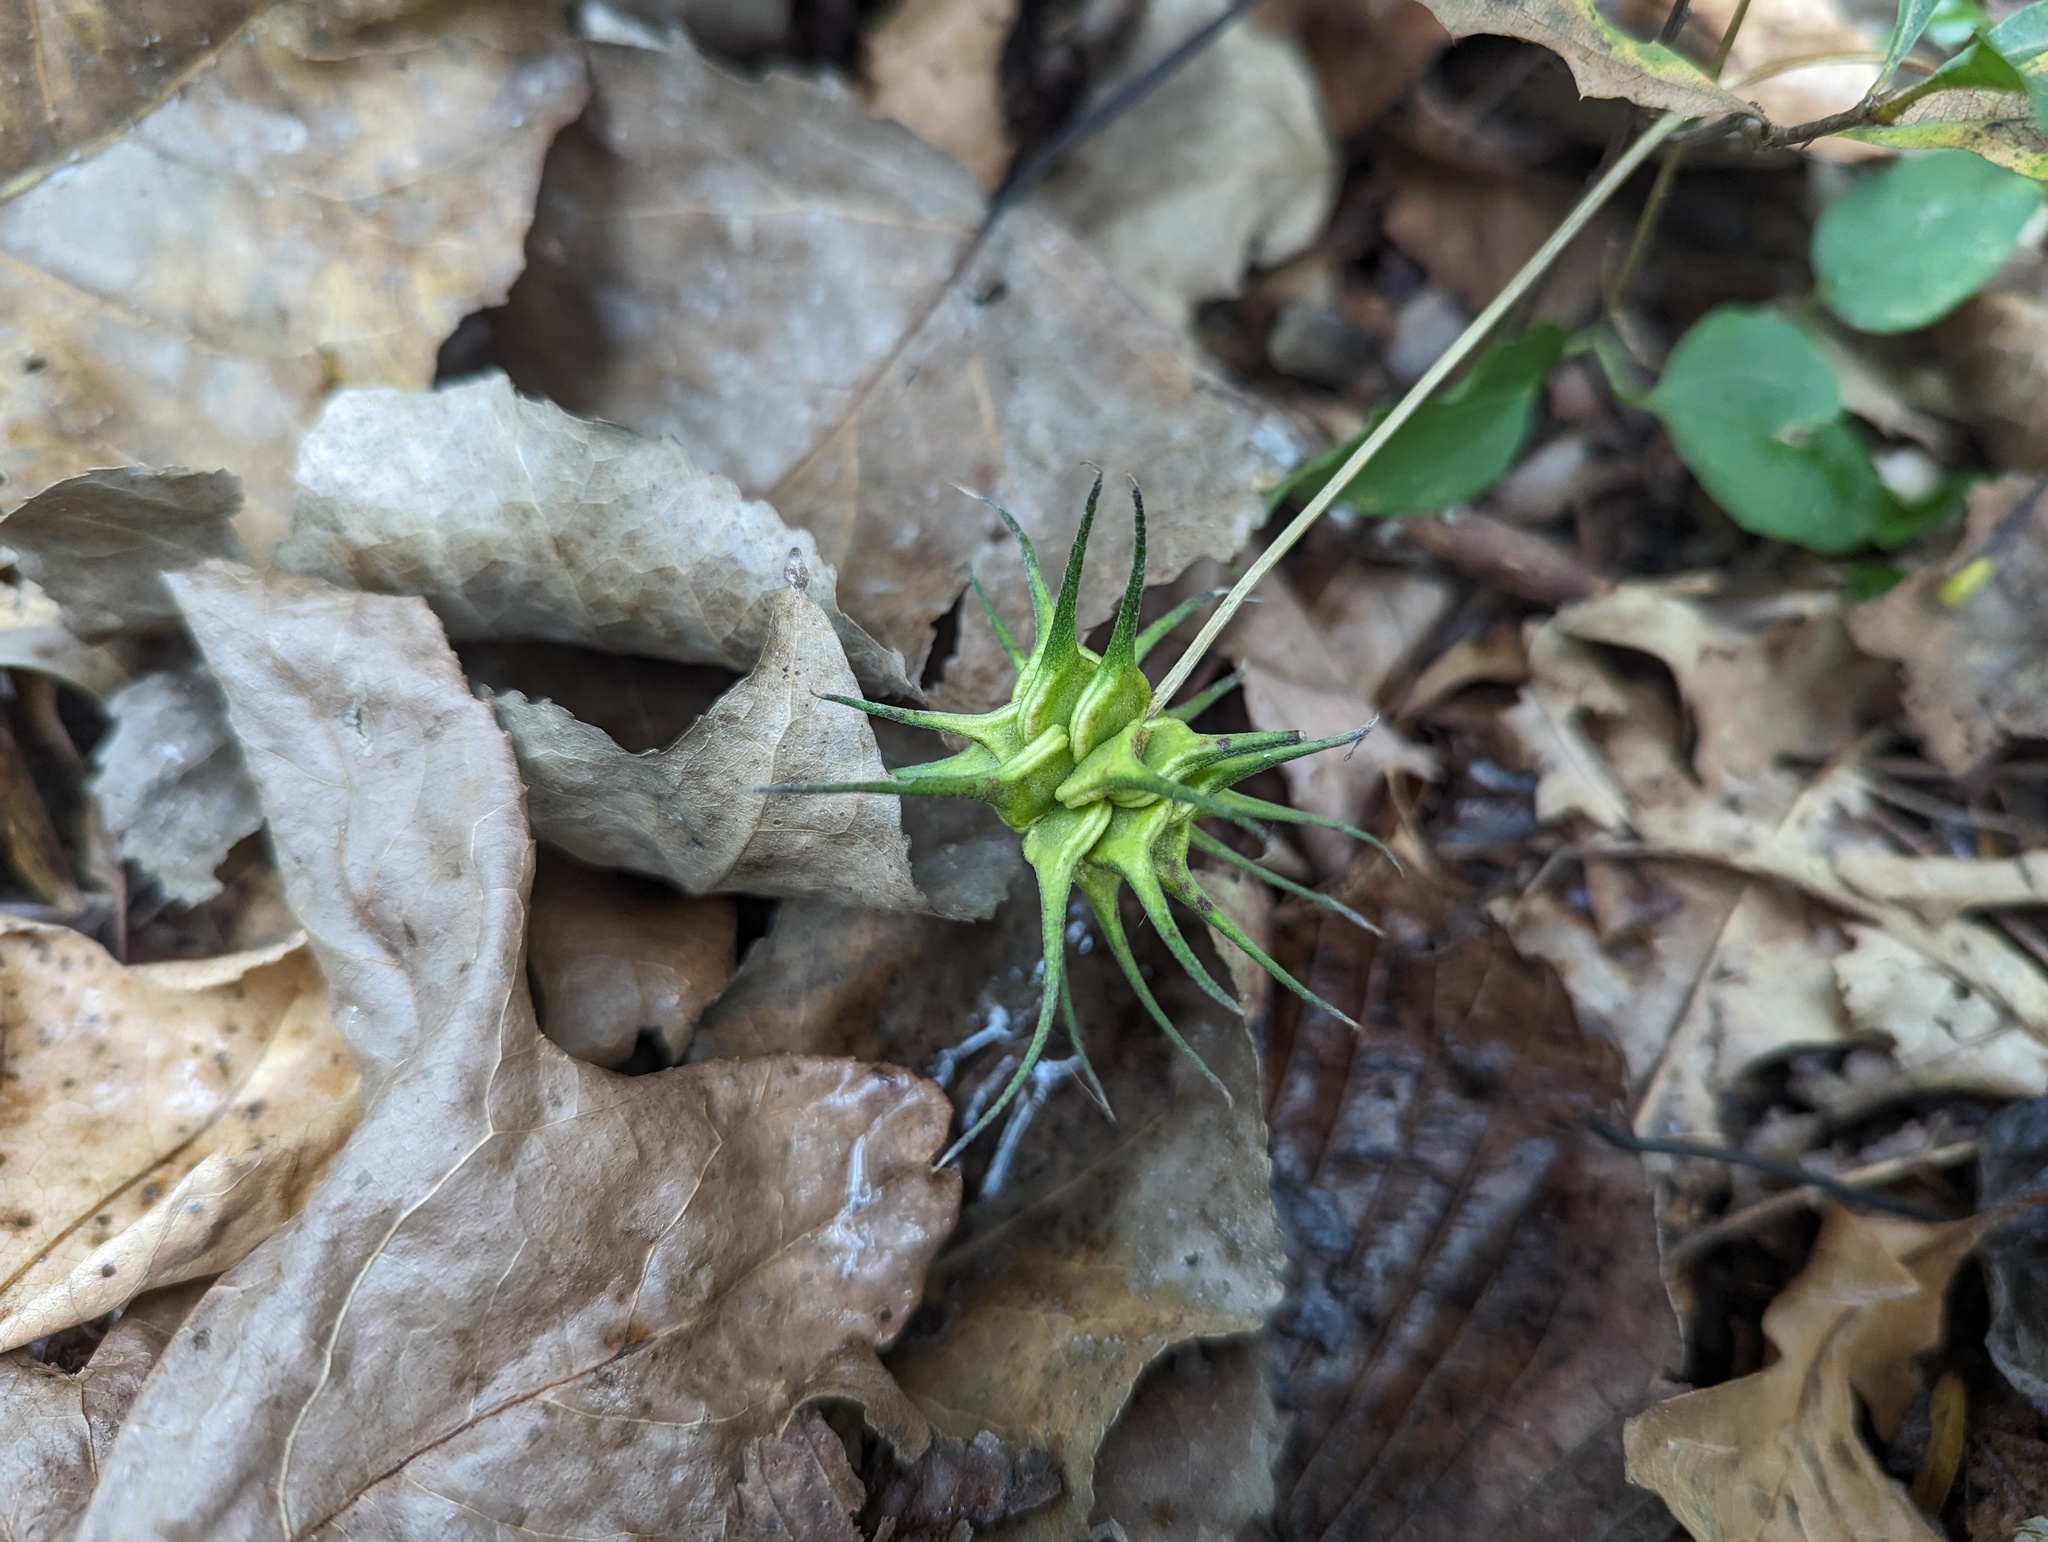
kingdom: Plantae
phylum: Tracheophyta
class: Magnoliopsida
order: Ranunculales
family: Ranunculaceae
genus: Clematis
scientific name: Clematis crispa
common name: Curly clematis
